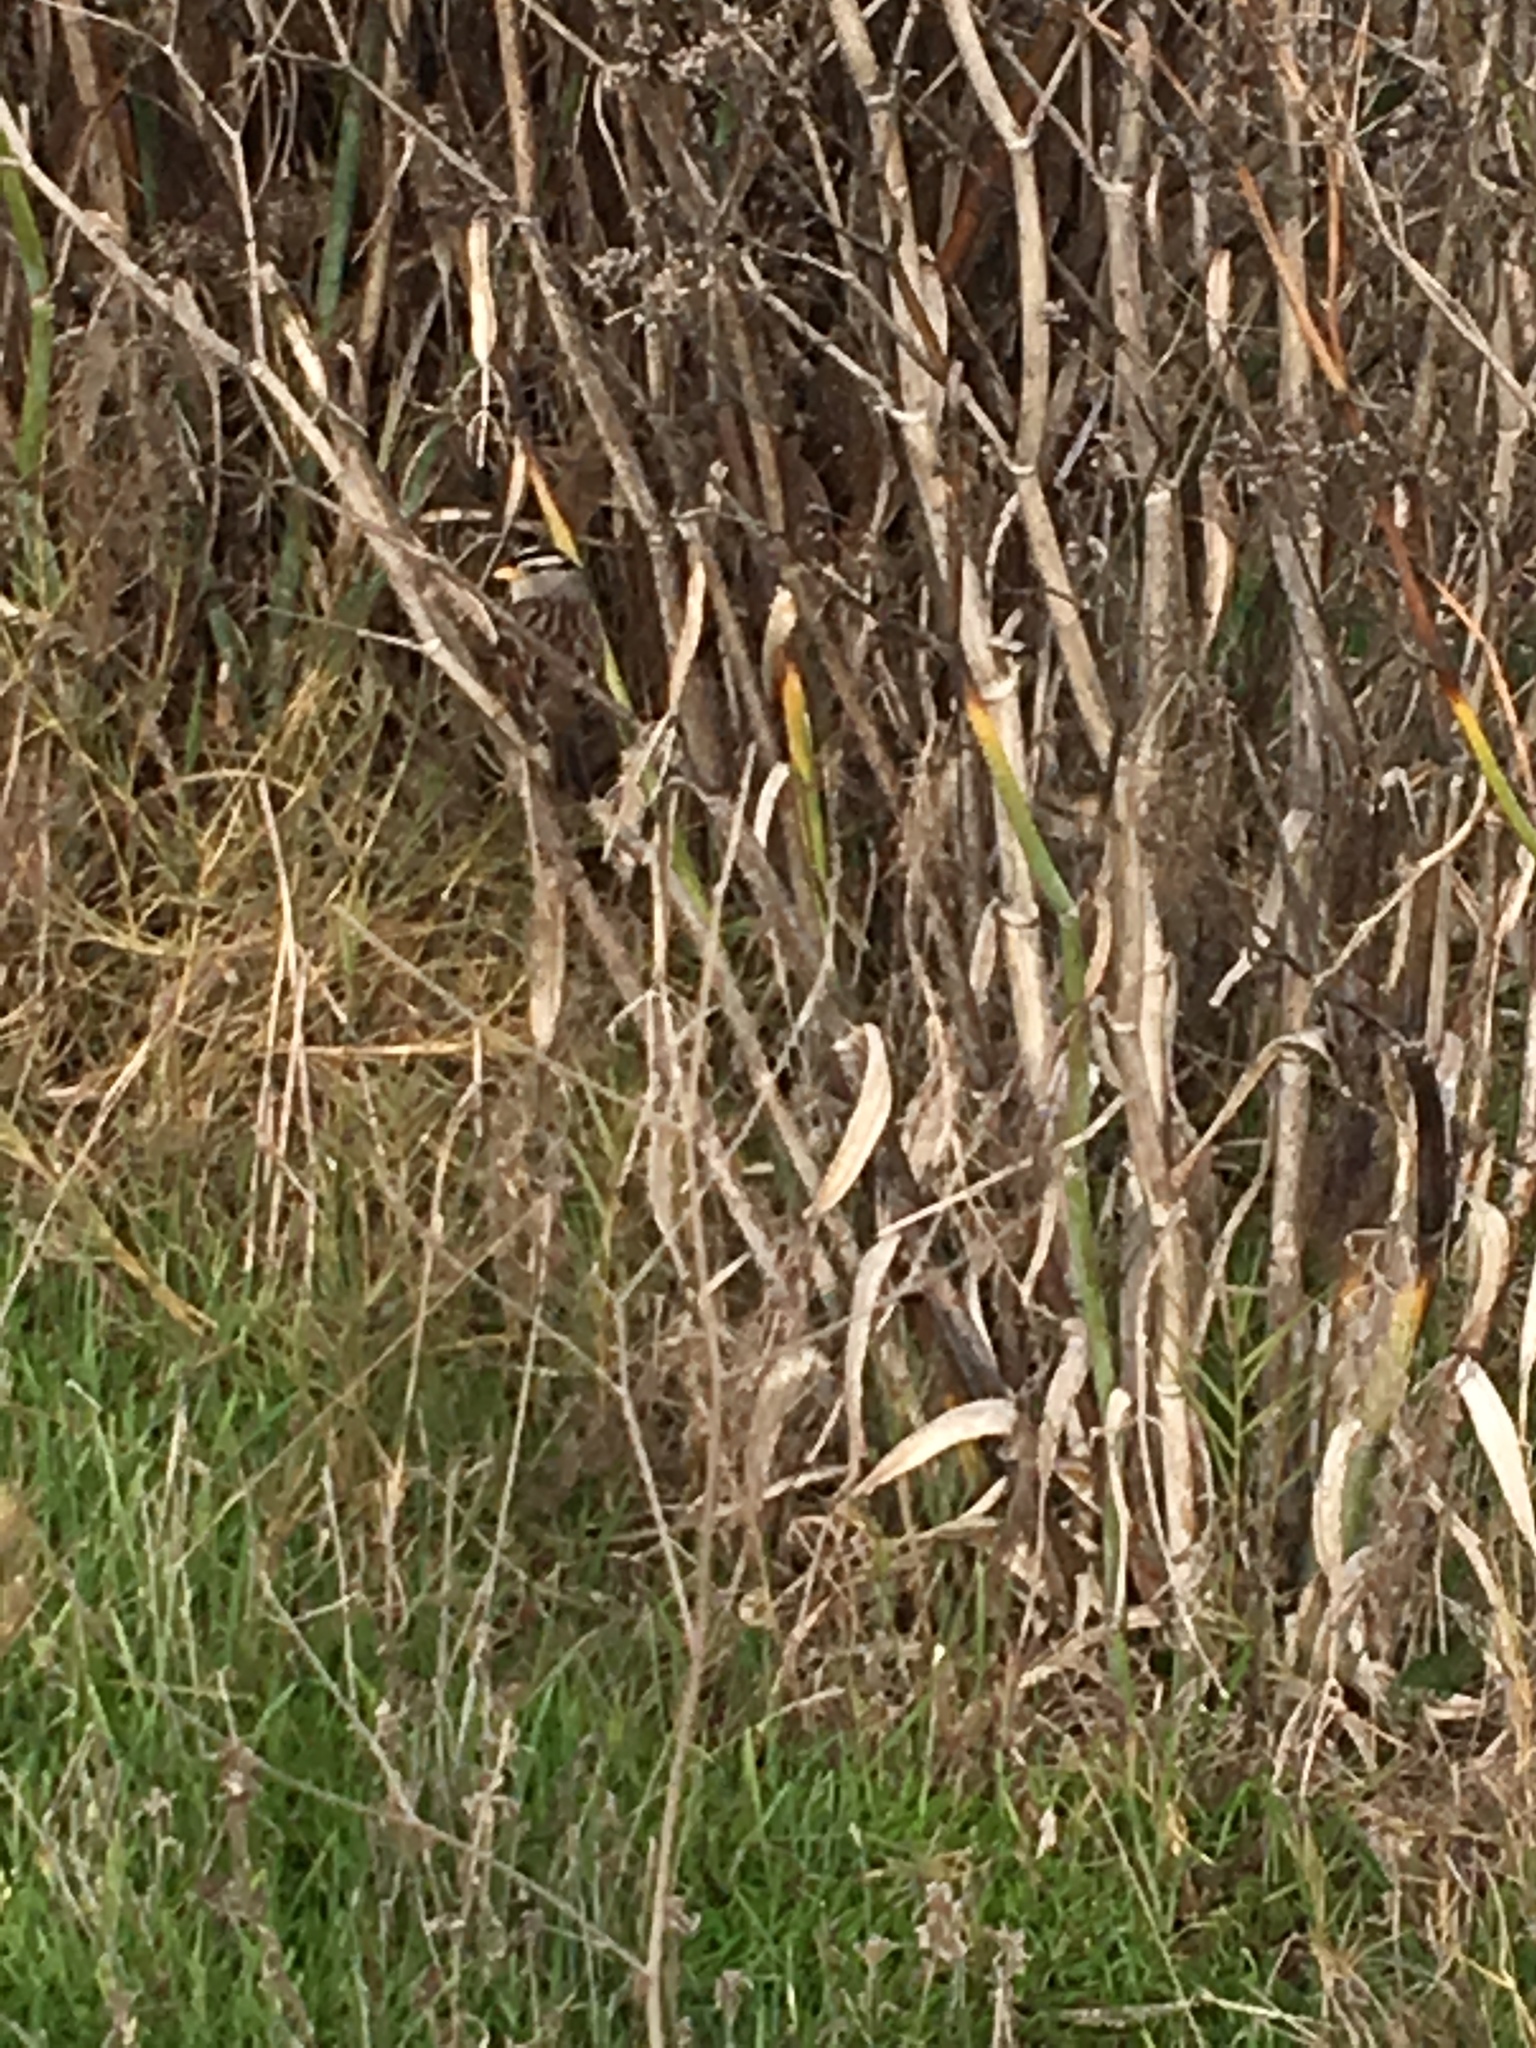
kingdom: Animalia
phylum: Chordata
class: Aves
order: Passeriformes
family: Passerellidae
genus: Zonotrichia
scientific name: Zonotrichia leucophrys
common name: White-crowned sparrow
